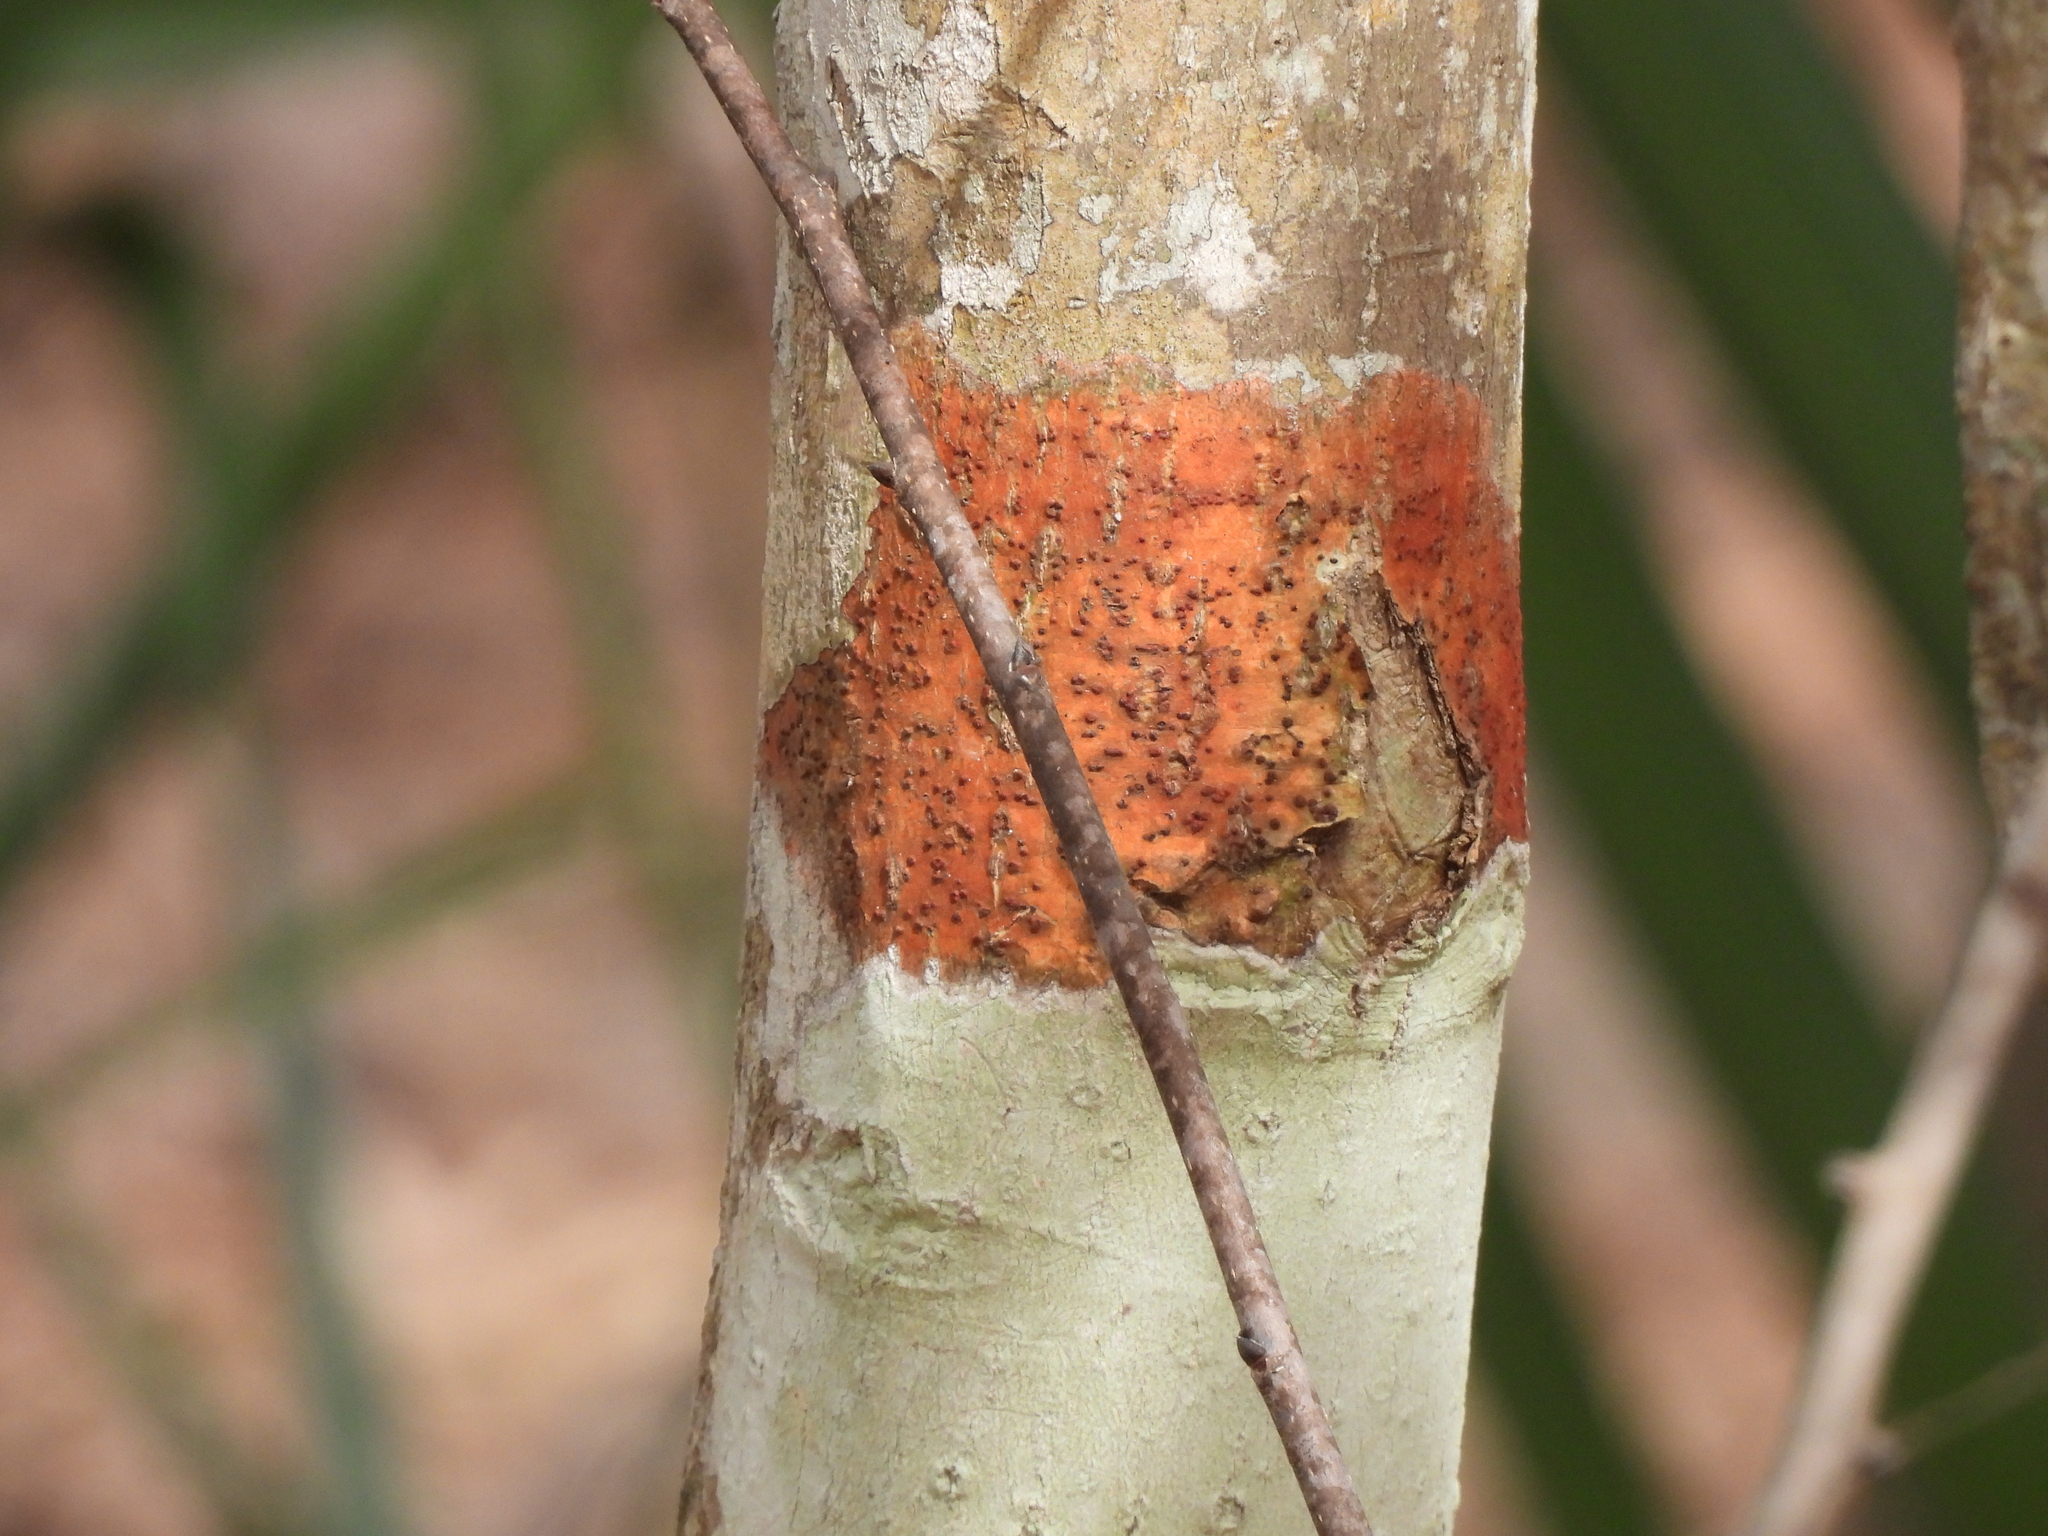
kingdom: Fungi
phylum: Ascomycota
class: Eurotiomycetes
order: Pyrenulales
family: Pyrenulaceae
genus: Pyrenula
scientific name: Pyrenula cruenta
